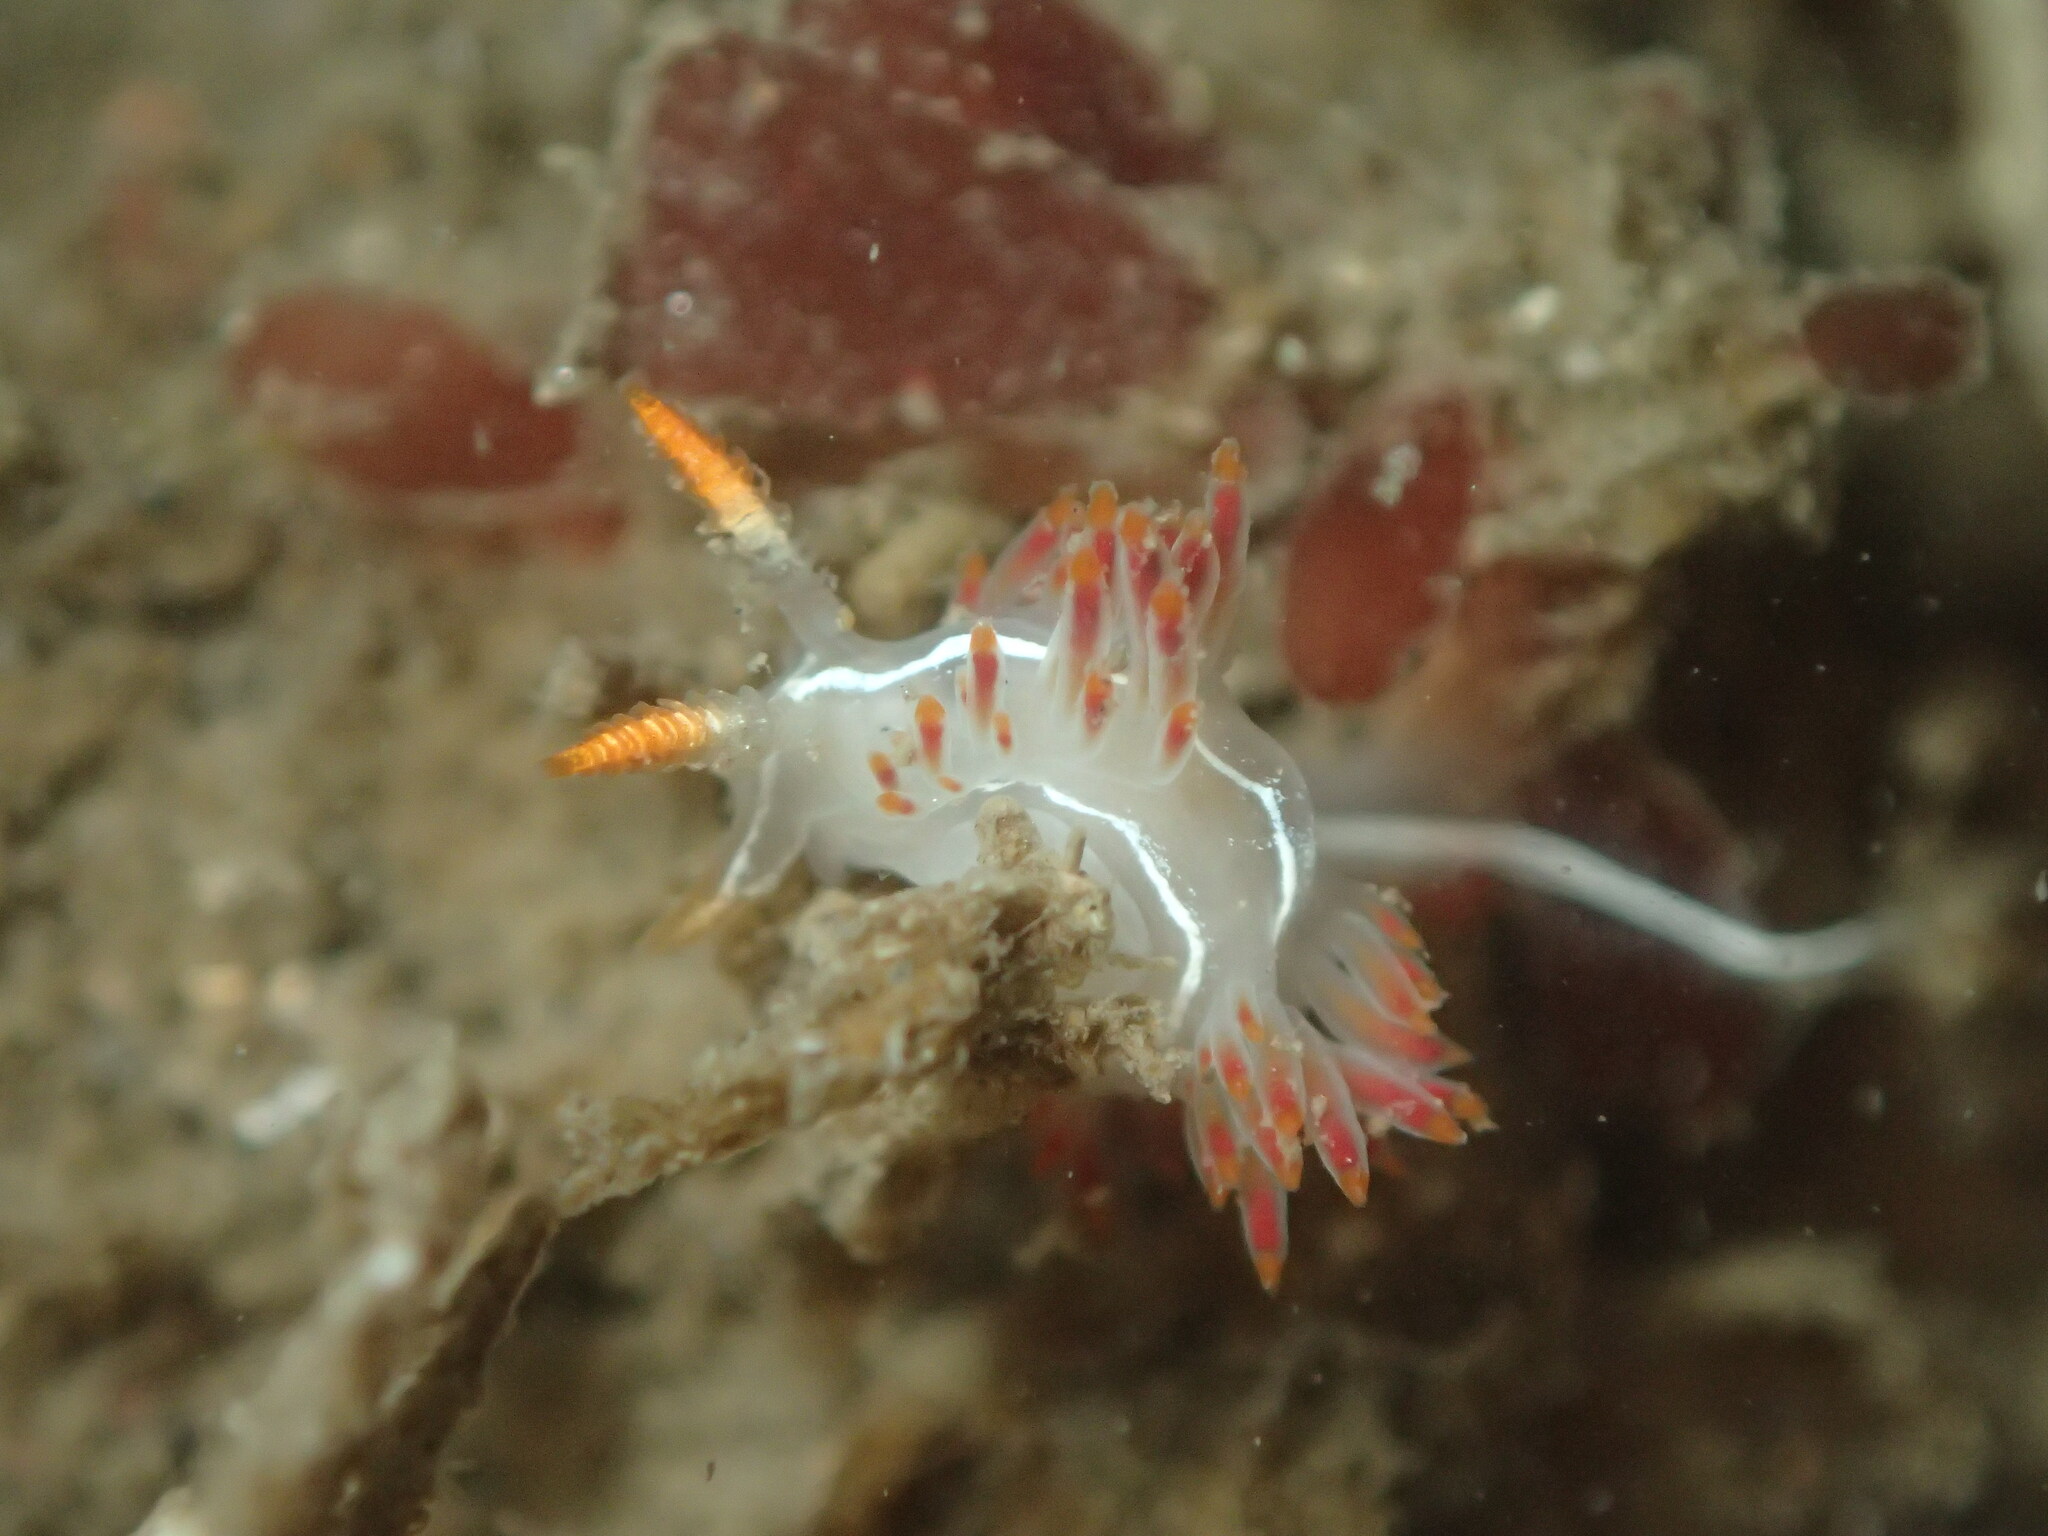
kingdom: Animalia
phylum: Mollusca
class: Gastropoda
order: Nudibranchia
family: Coryphellidae
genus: Coryphella
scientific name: Coryphella trilineata
